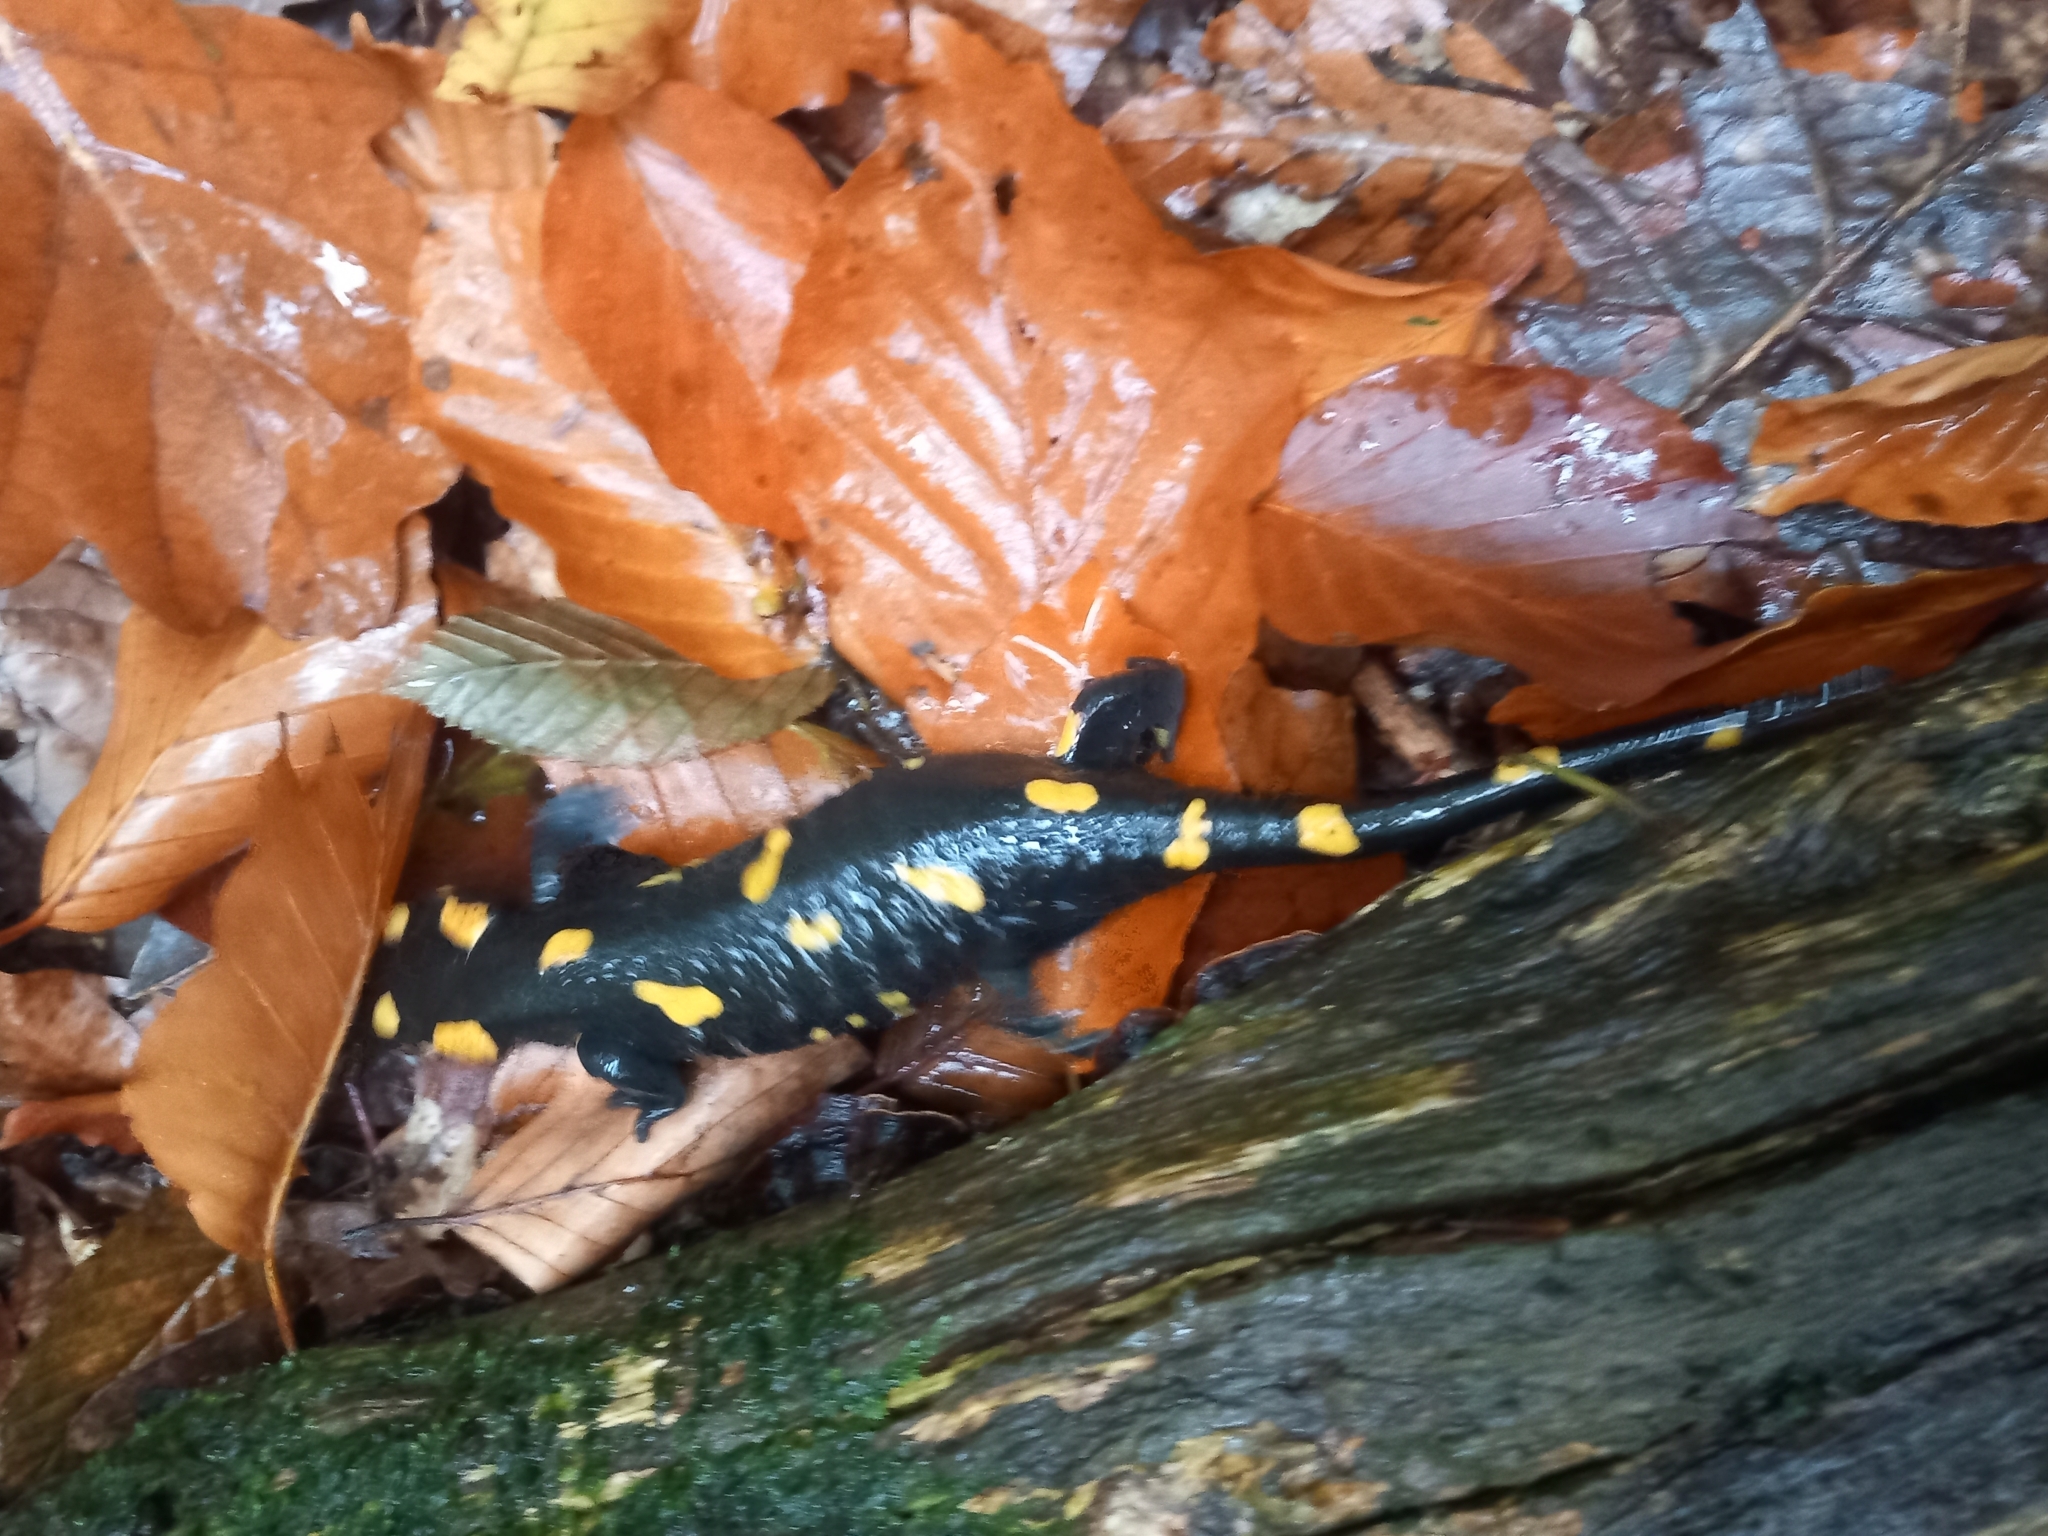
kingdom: Animalia
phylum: Chordata
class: Amphibia
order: Caudata
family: Salamandridae
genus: Salamandra
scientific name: Salamandra salamandra
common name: Fire salamander
